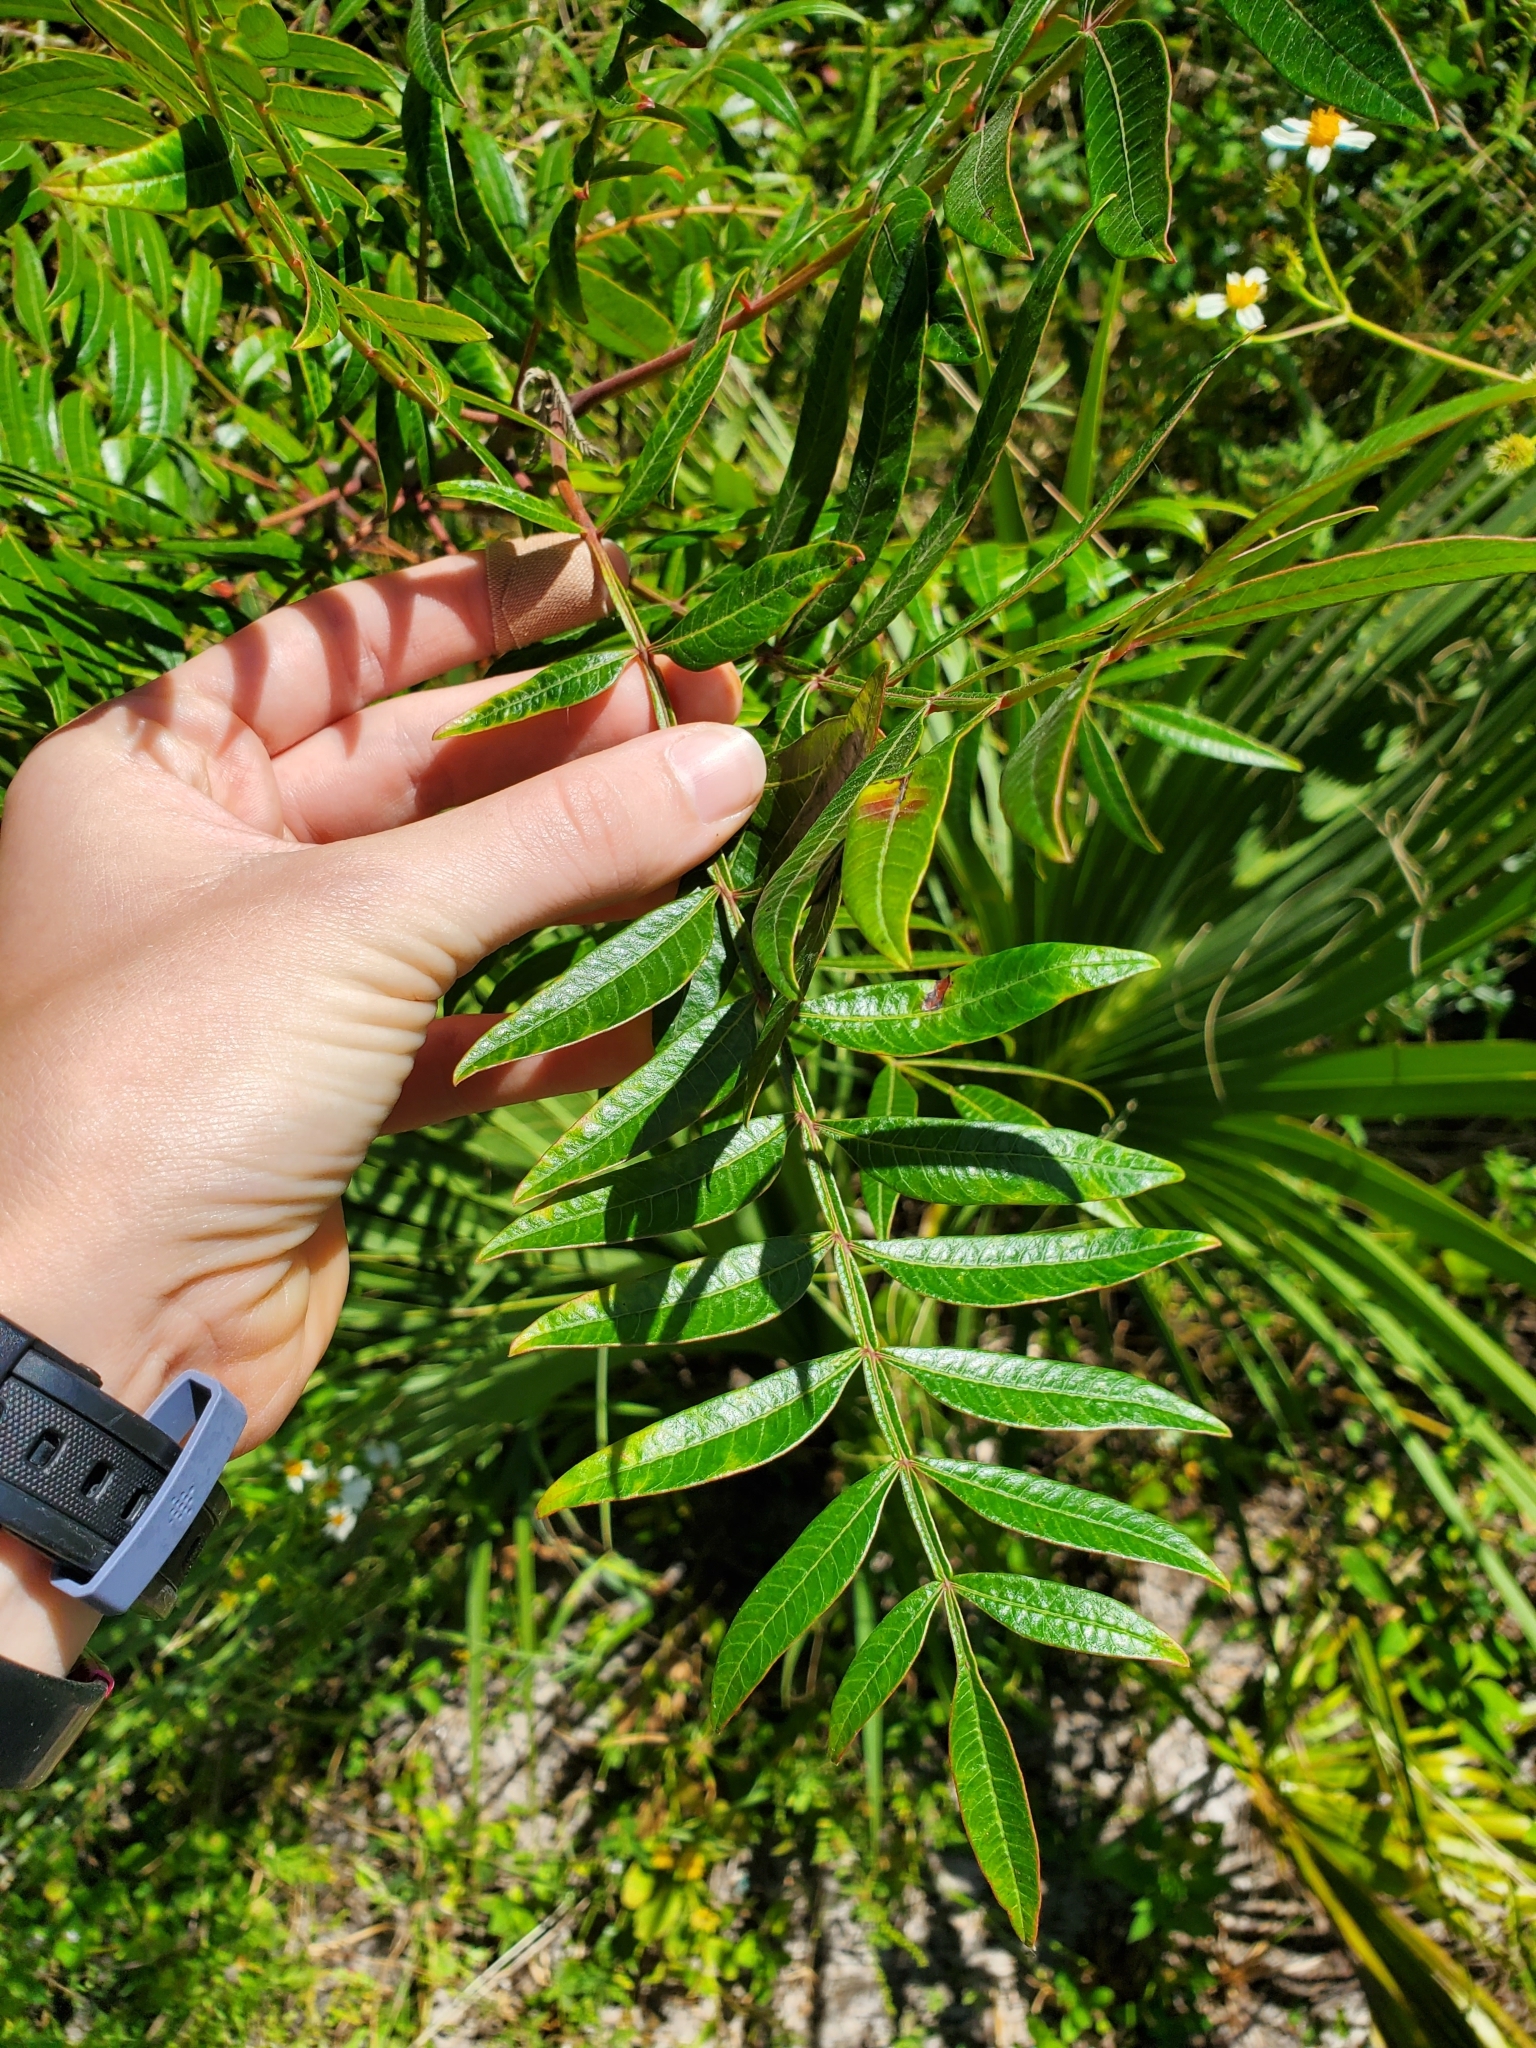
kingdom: Plantae
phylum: Tracheophyta
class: Magnoliopsida
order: Sapindales
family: Anacardiaceae
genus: Rhus
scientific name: Rhus copallina
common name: Shining sumac
